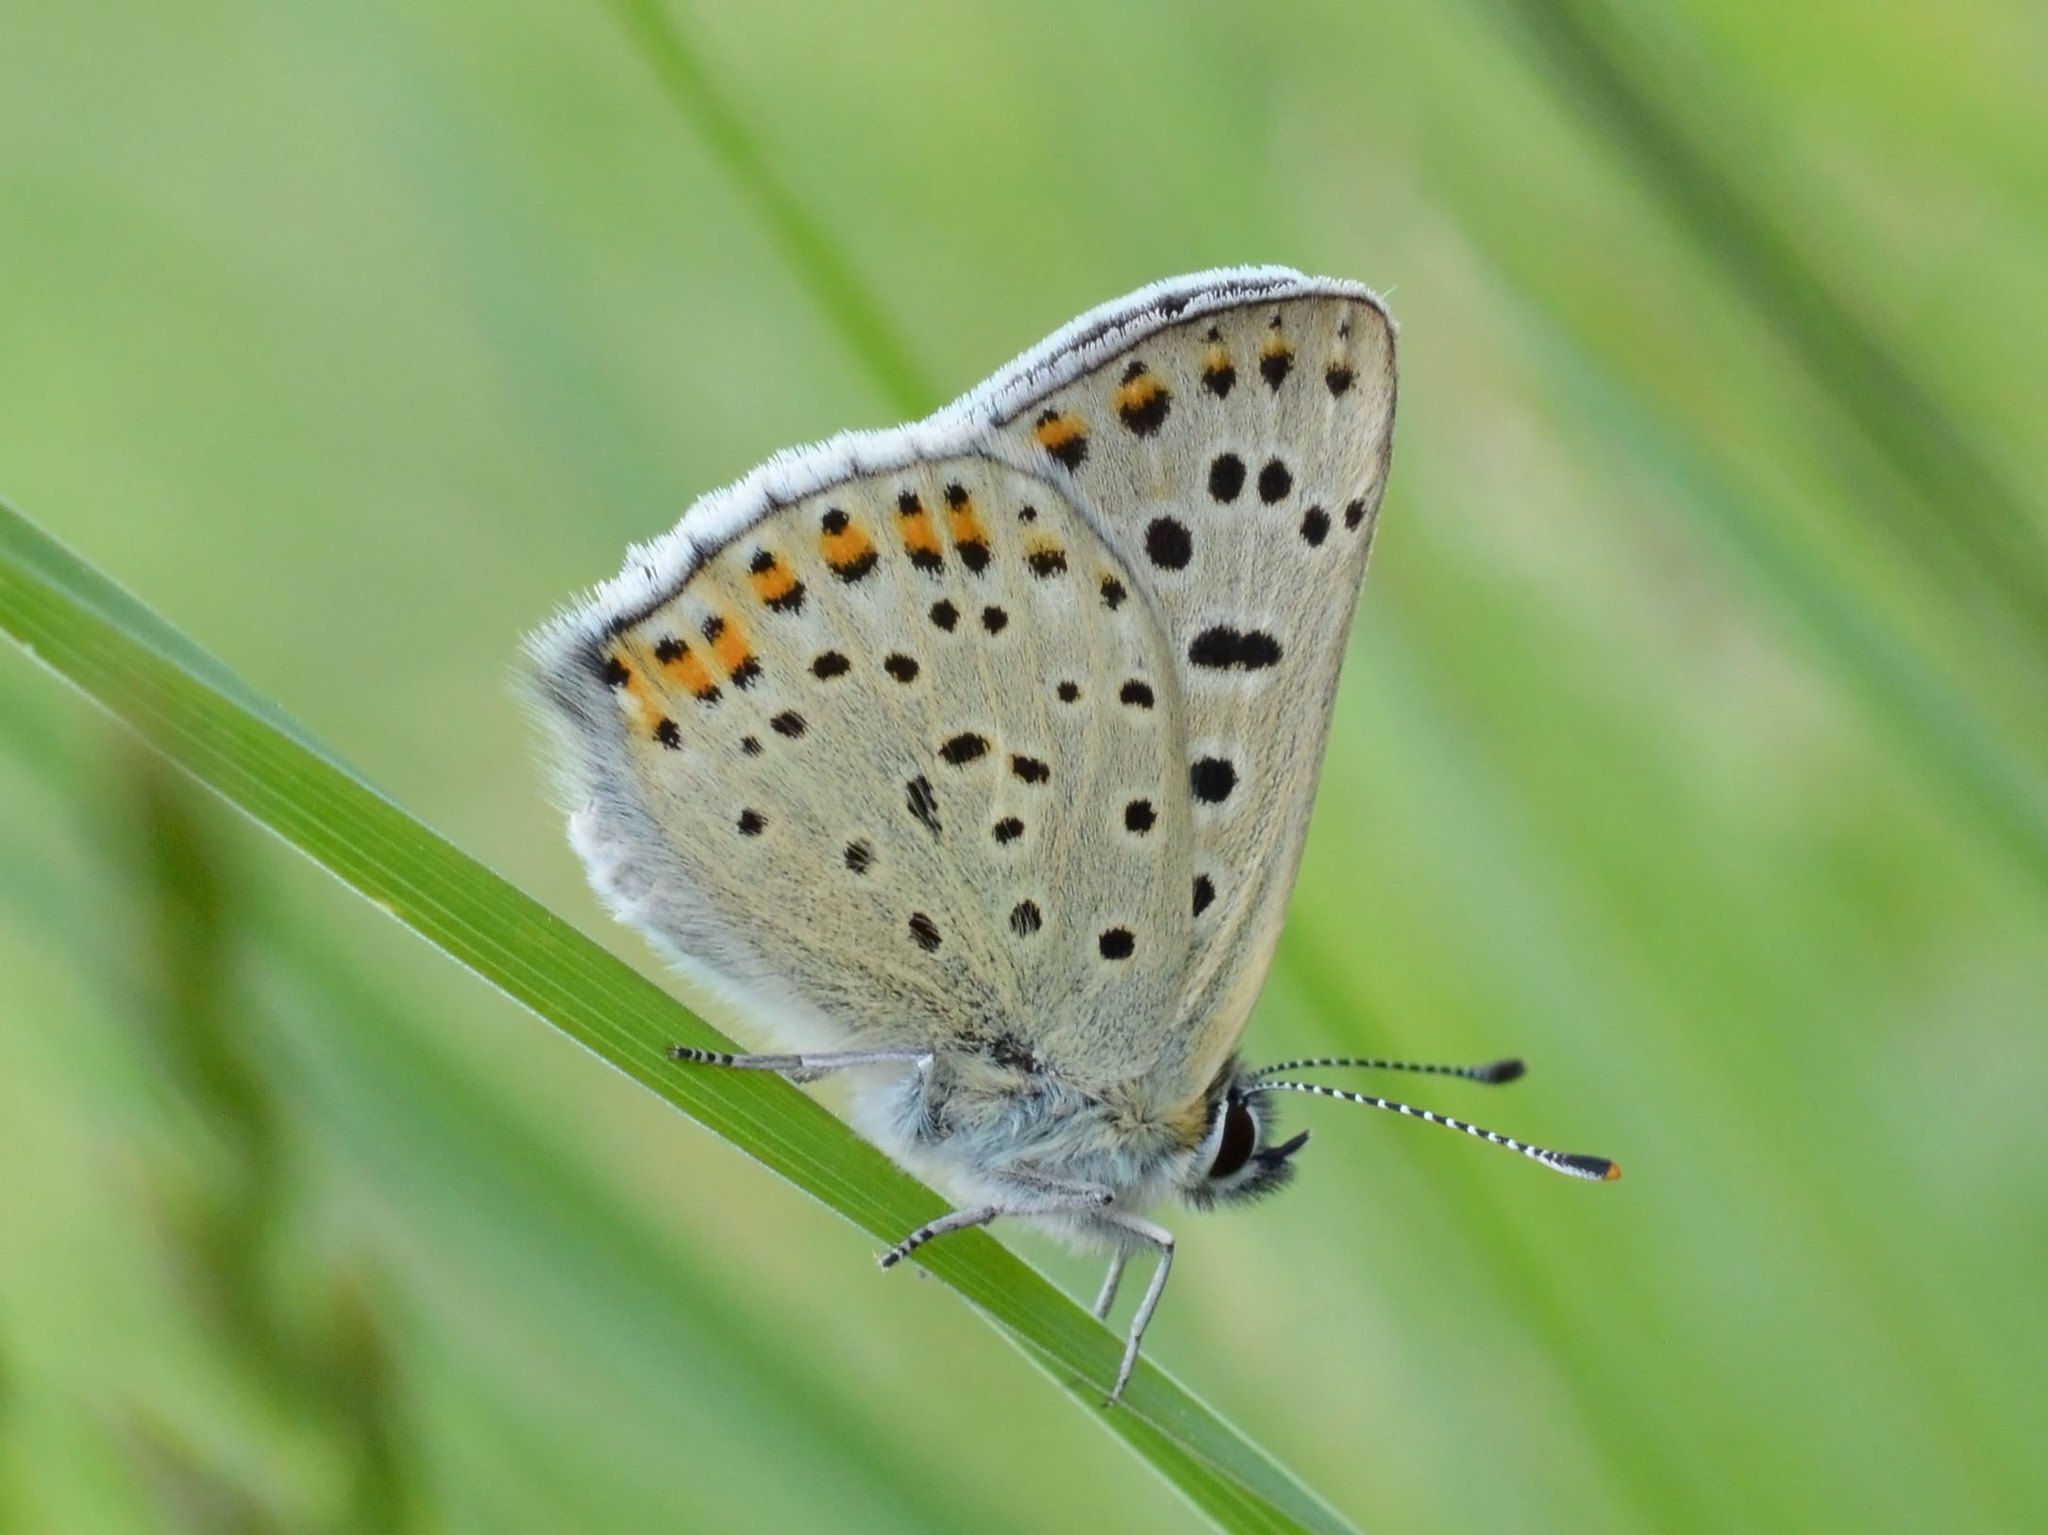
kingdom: Animalia
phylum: Arthropoda
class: Insecta
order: Lepidoptera
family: Lycaenidae
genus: Loweia
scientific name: Loweia tityrus
